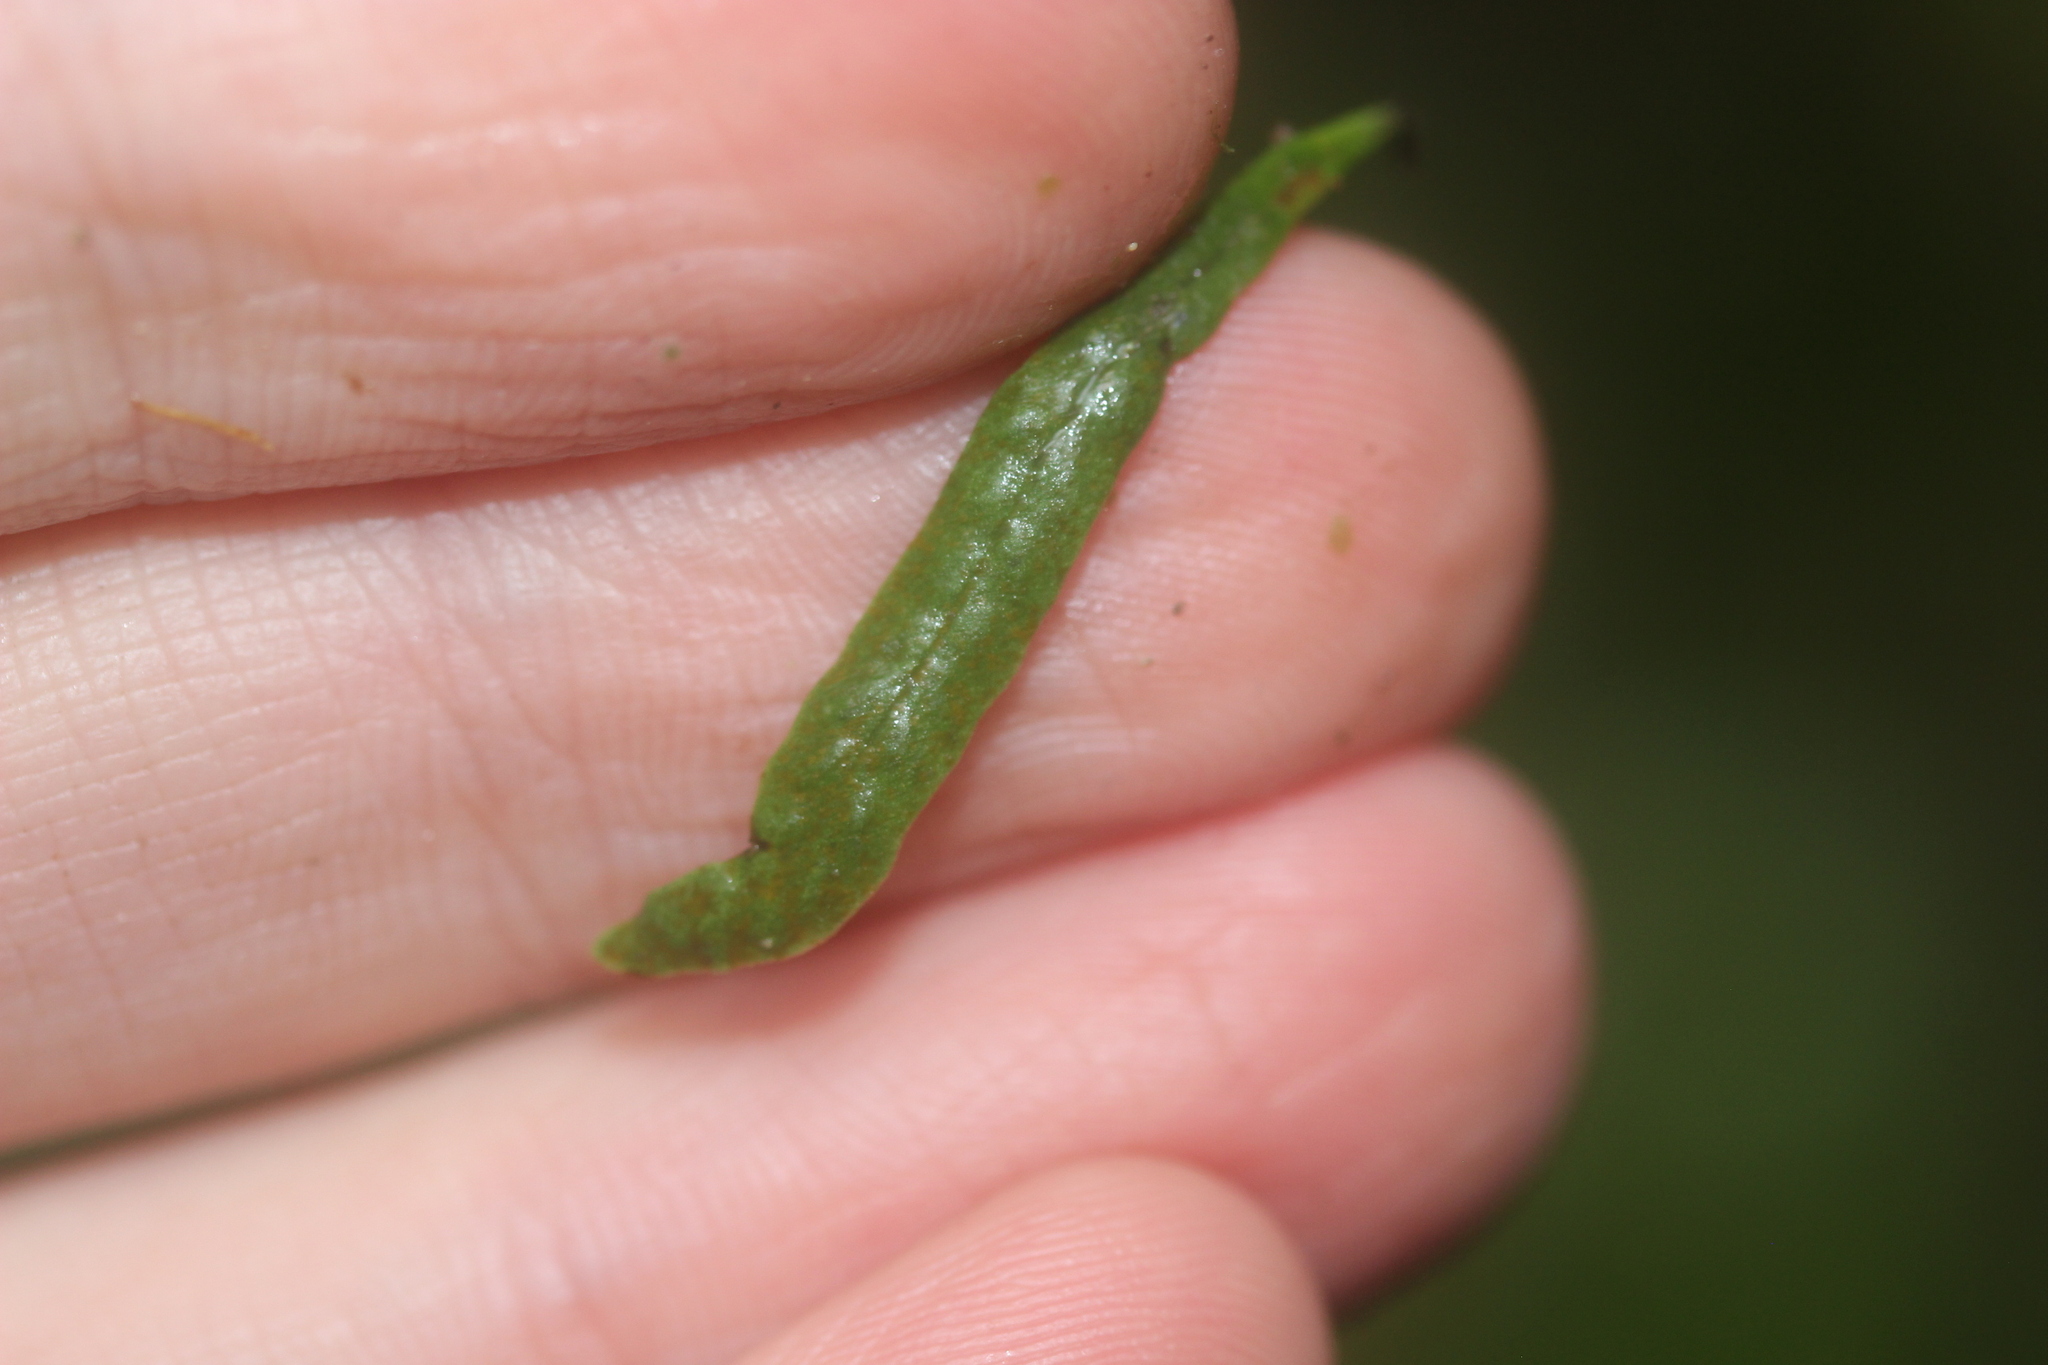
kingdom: Plantae
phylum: Tracheophyta
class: Polypodiopsida
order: Polypodiales
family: Polypodiaceae
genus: Notogrammitis
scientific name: Notogrammitis ciliata
